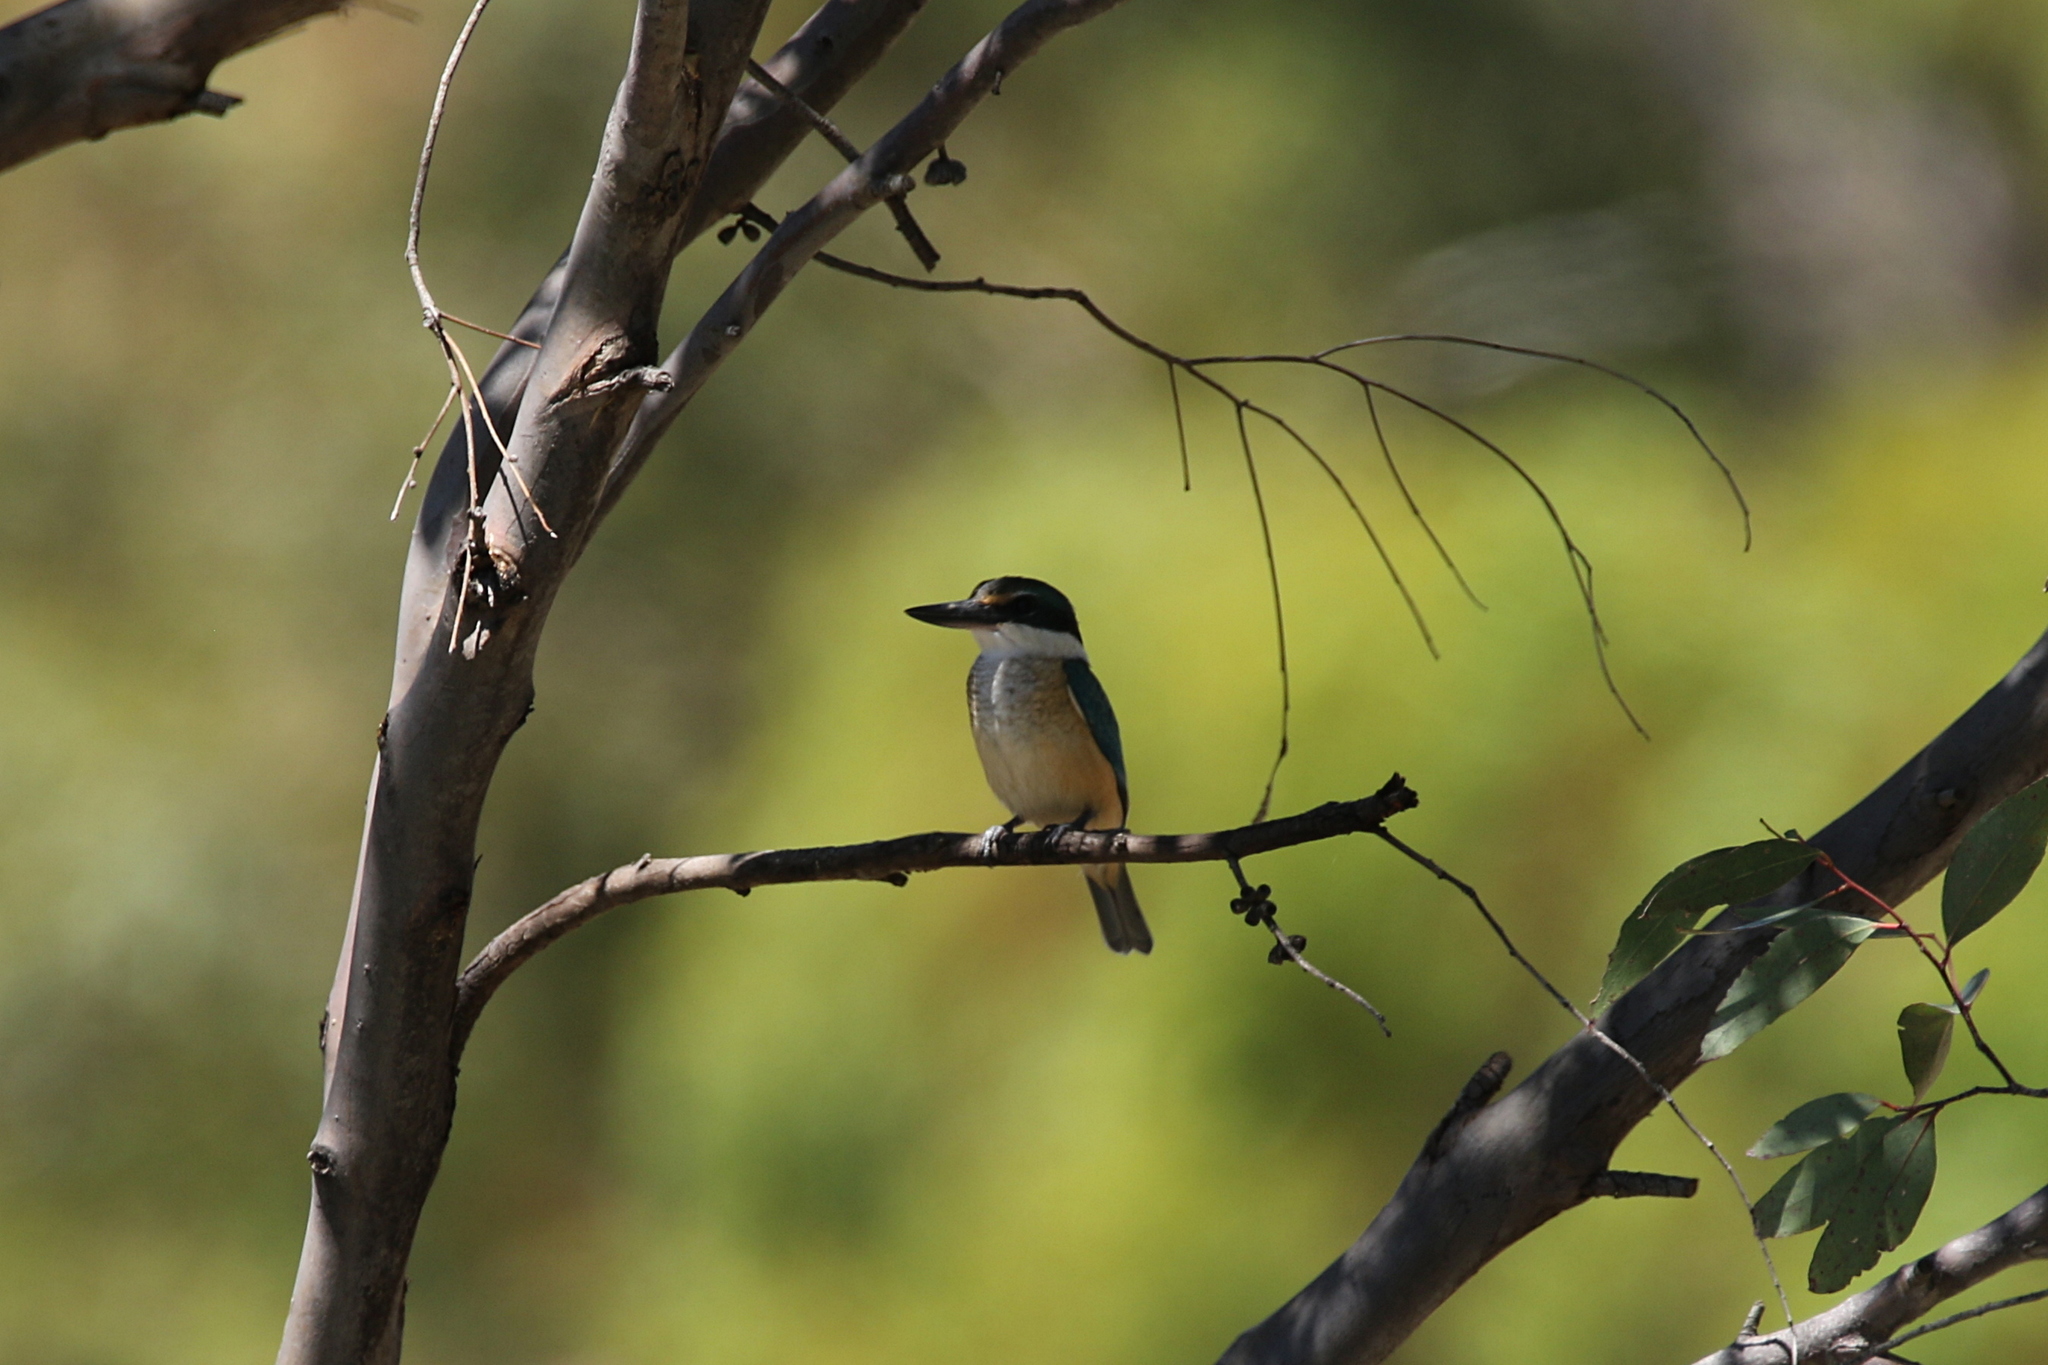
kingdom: Animalia
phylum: Chordata
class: Aves
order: Coraciiformes
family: Alcedinidae
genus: Todiramphus
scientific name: Todiramphus sanctus
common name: Sacred kingfisher
